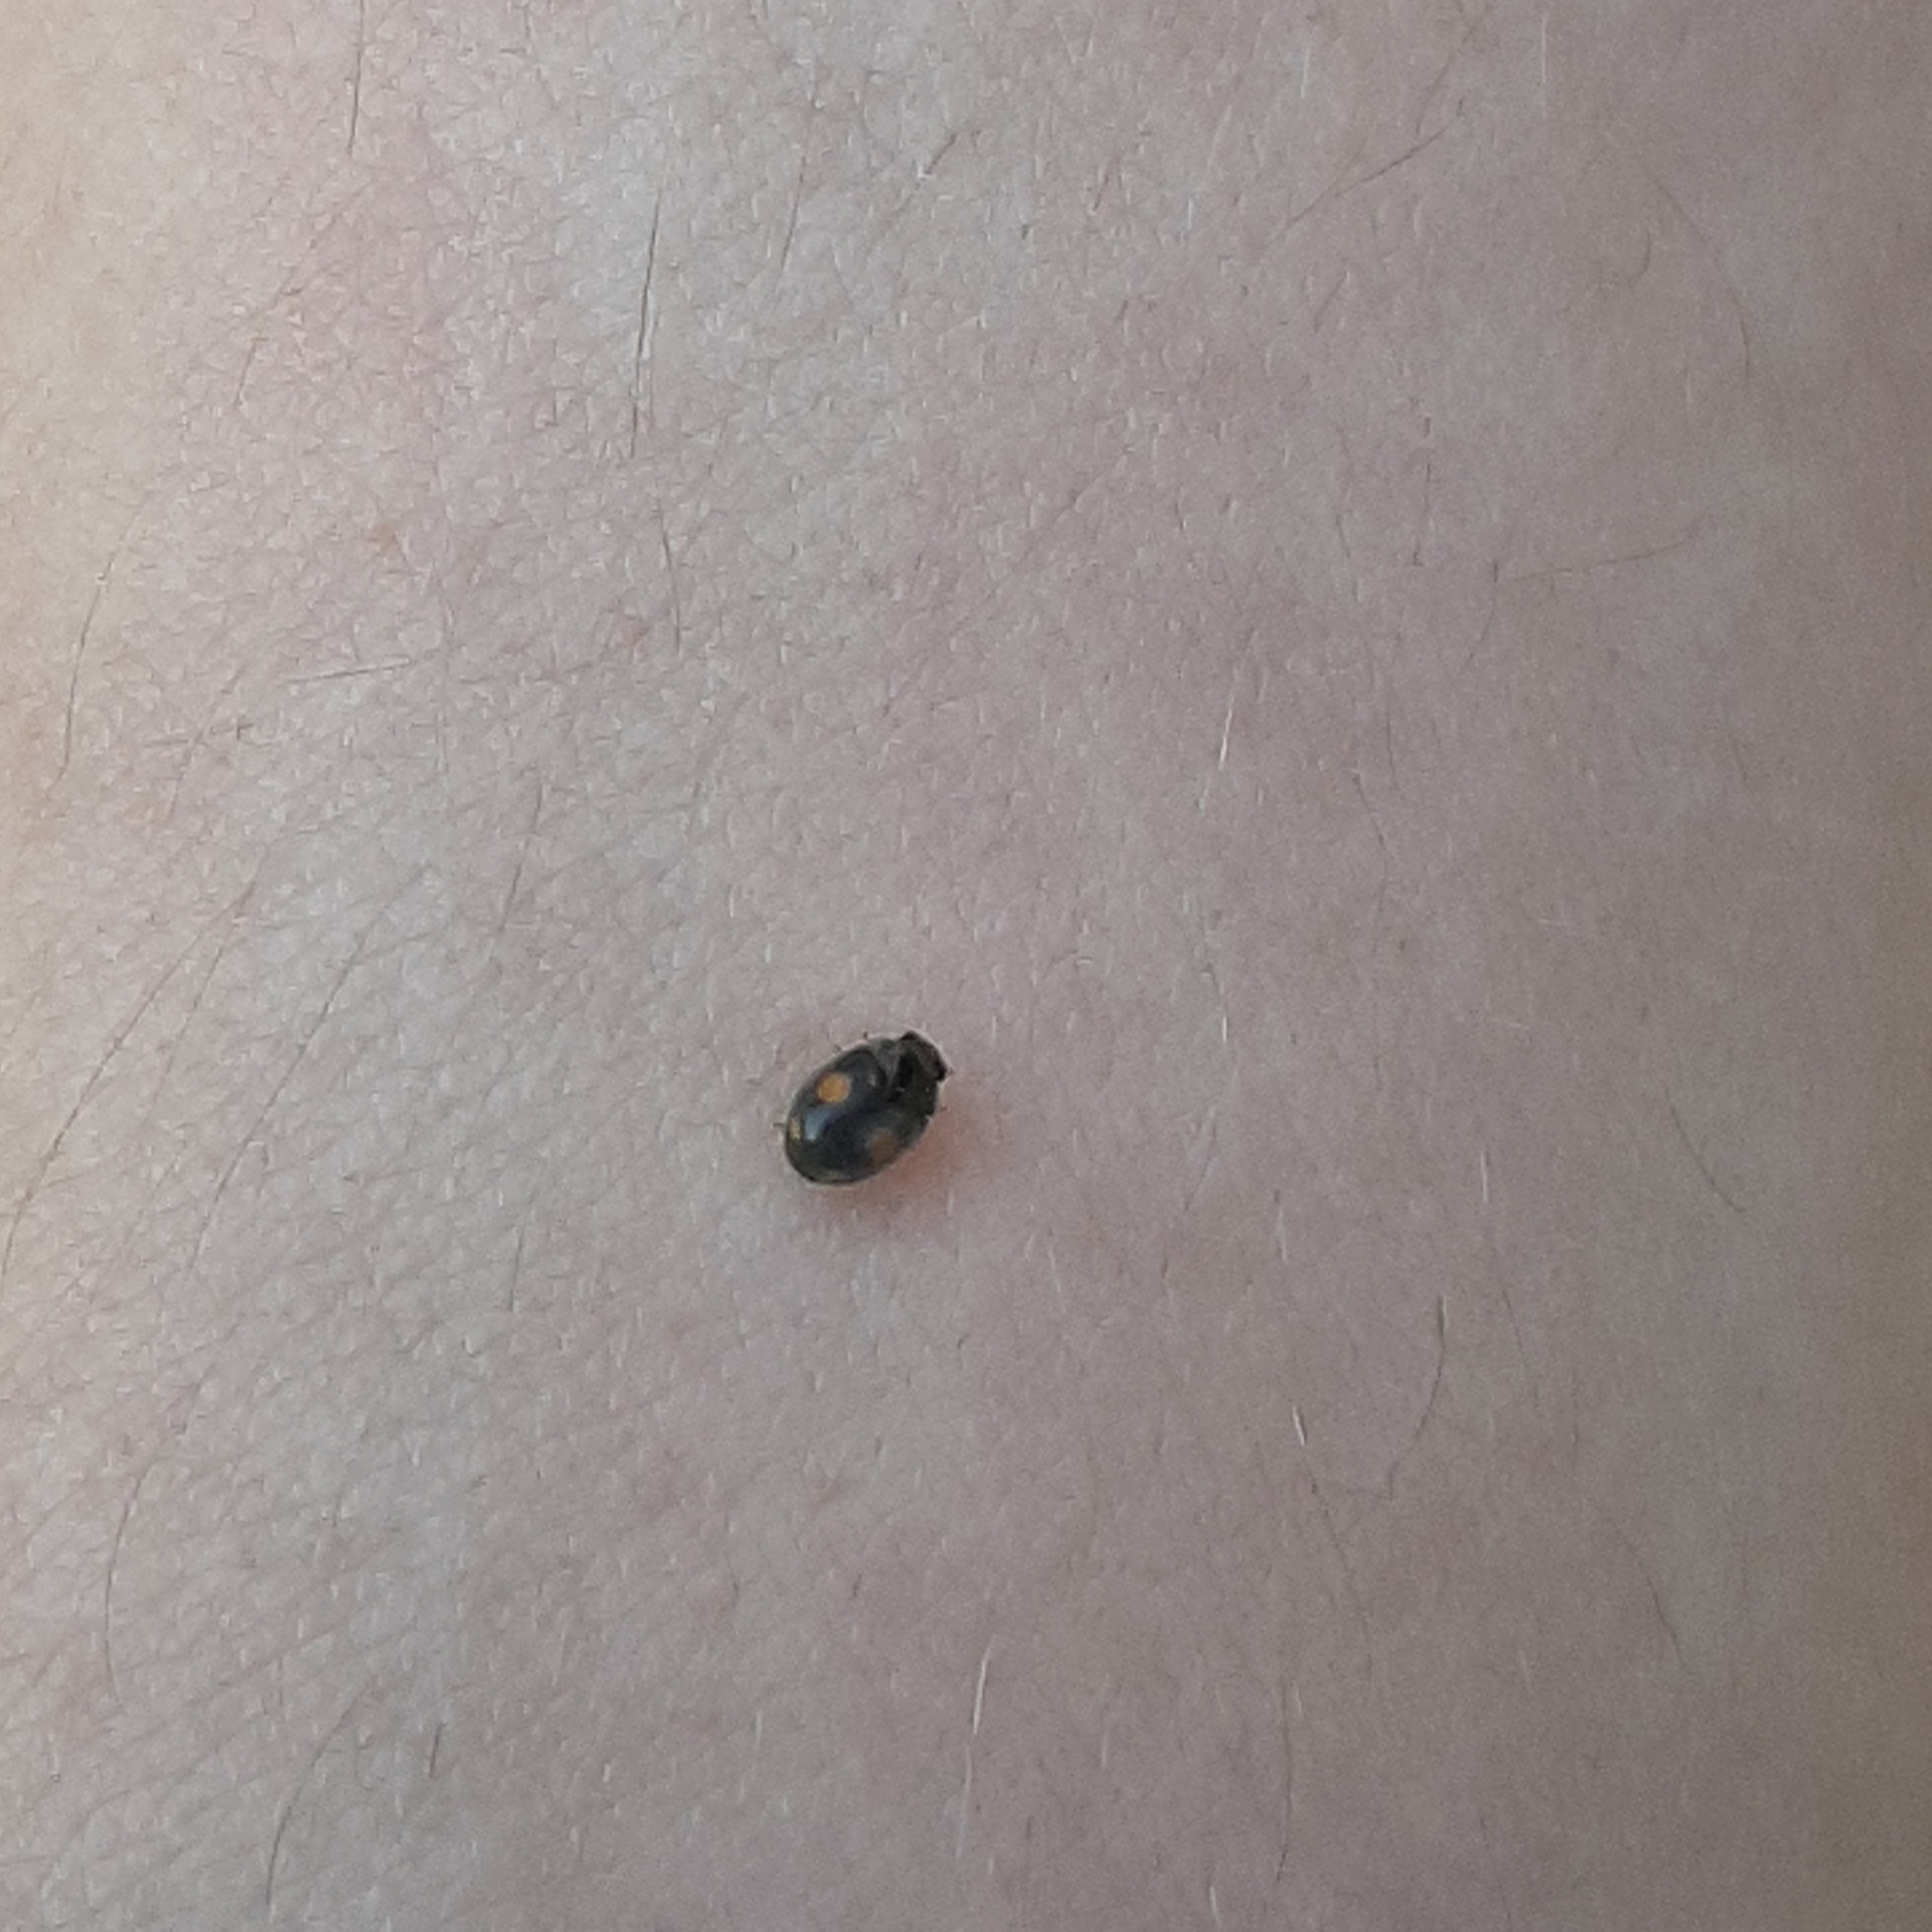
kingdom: Animalia
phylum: Arthropoda
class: Insecta
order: Coleoptera
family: Coccinellidae
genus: Platynaspis
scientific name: Platynaspis luteorubra
